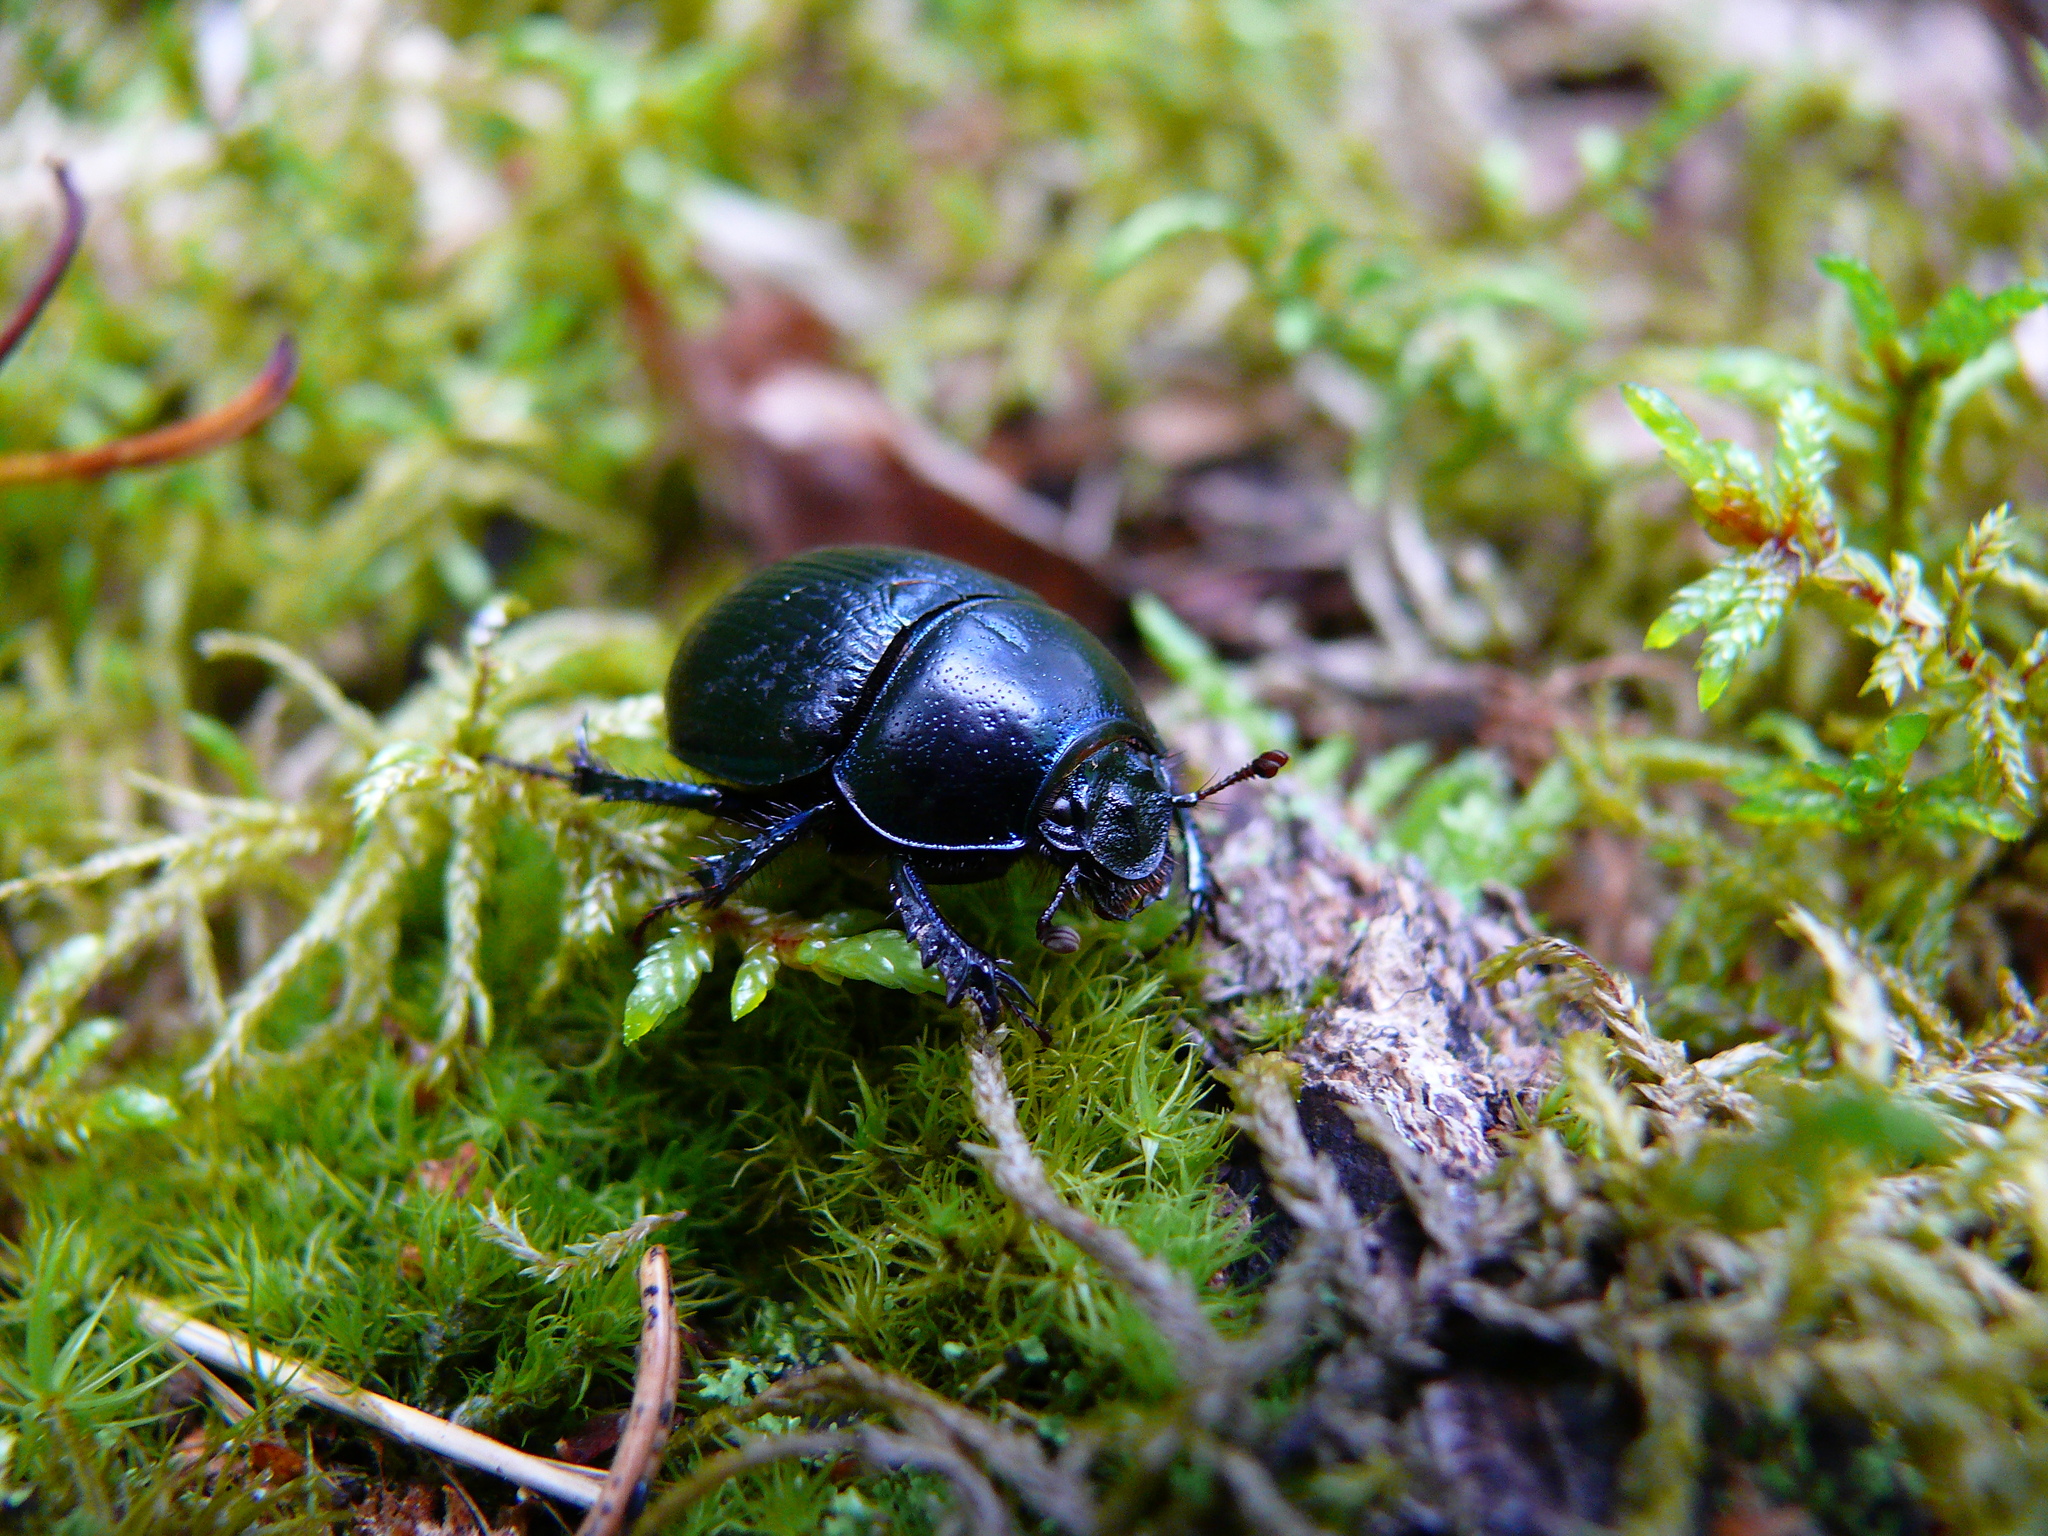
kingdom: Animalia
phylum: Arthropoda
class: Insecta
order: Coleoptera
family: Geotrupidae
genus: Anoplotrupes
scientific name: Anoplotrupes stercorosus
